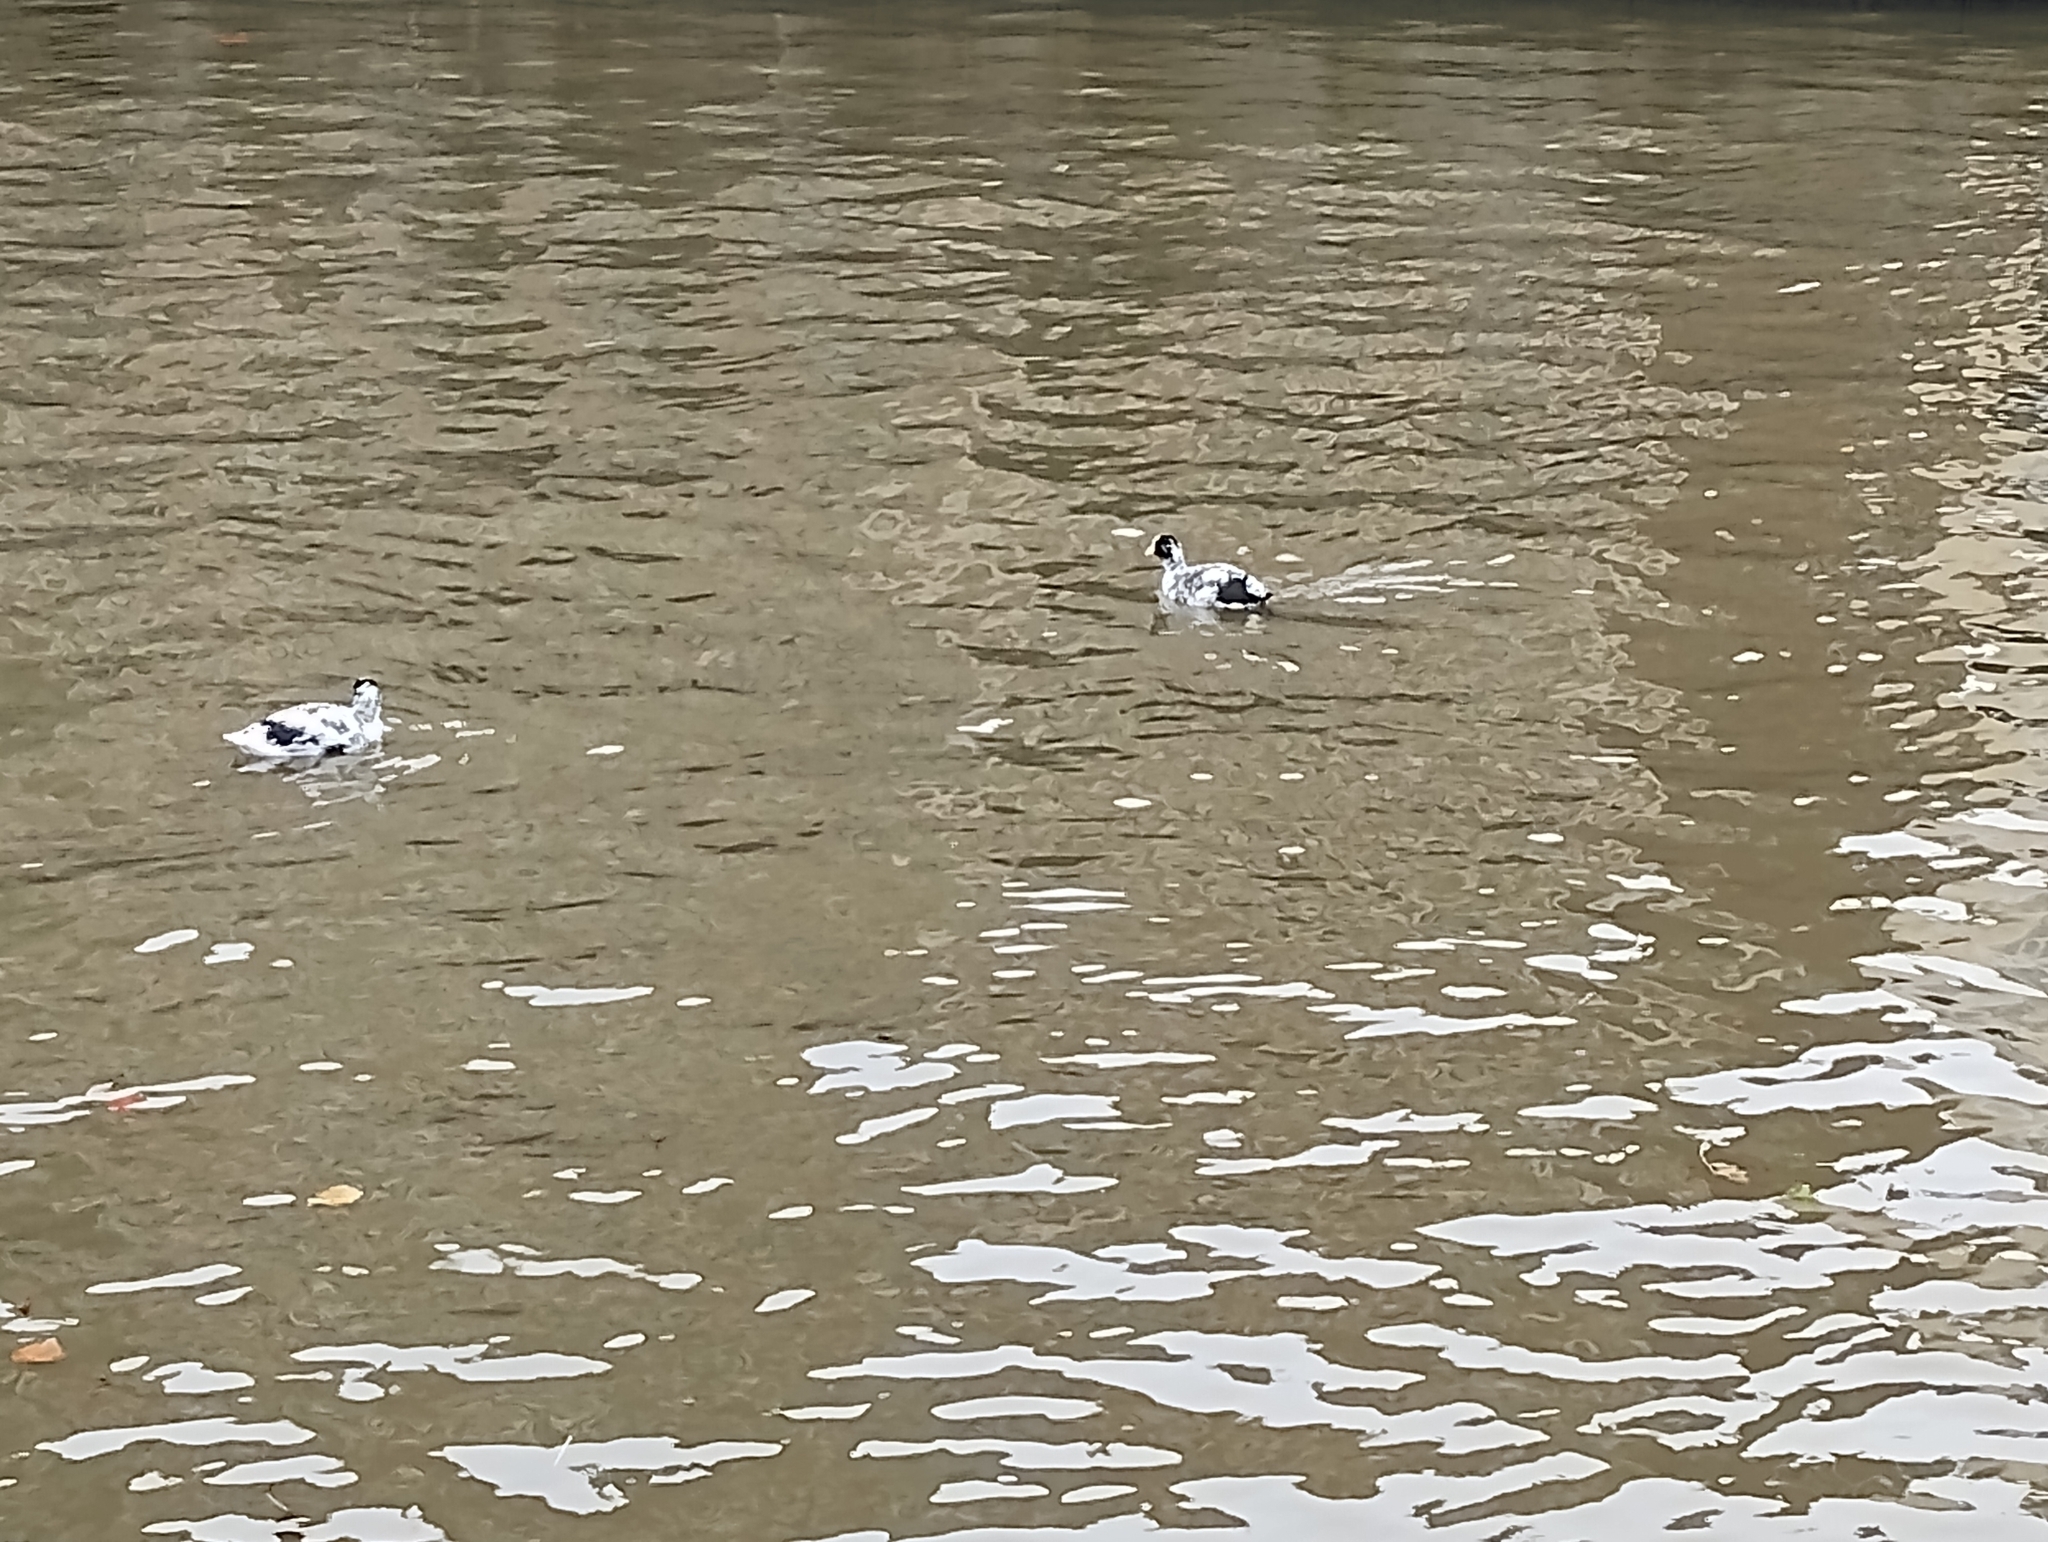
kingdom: Animalia
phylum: Chordata
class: Aves
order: Gruiformes
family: Rallidae
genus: Fulica
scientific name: Fulica atra
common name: Eurasian coot
